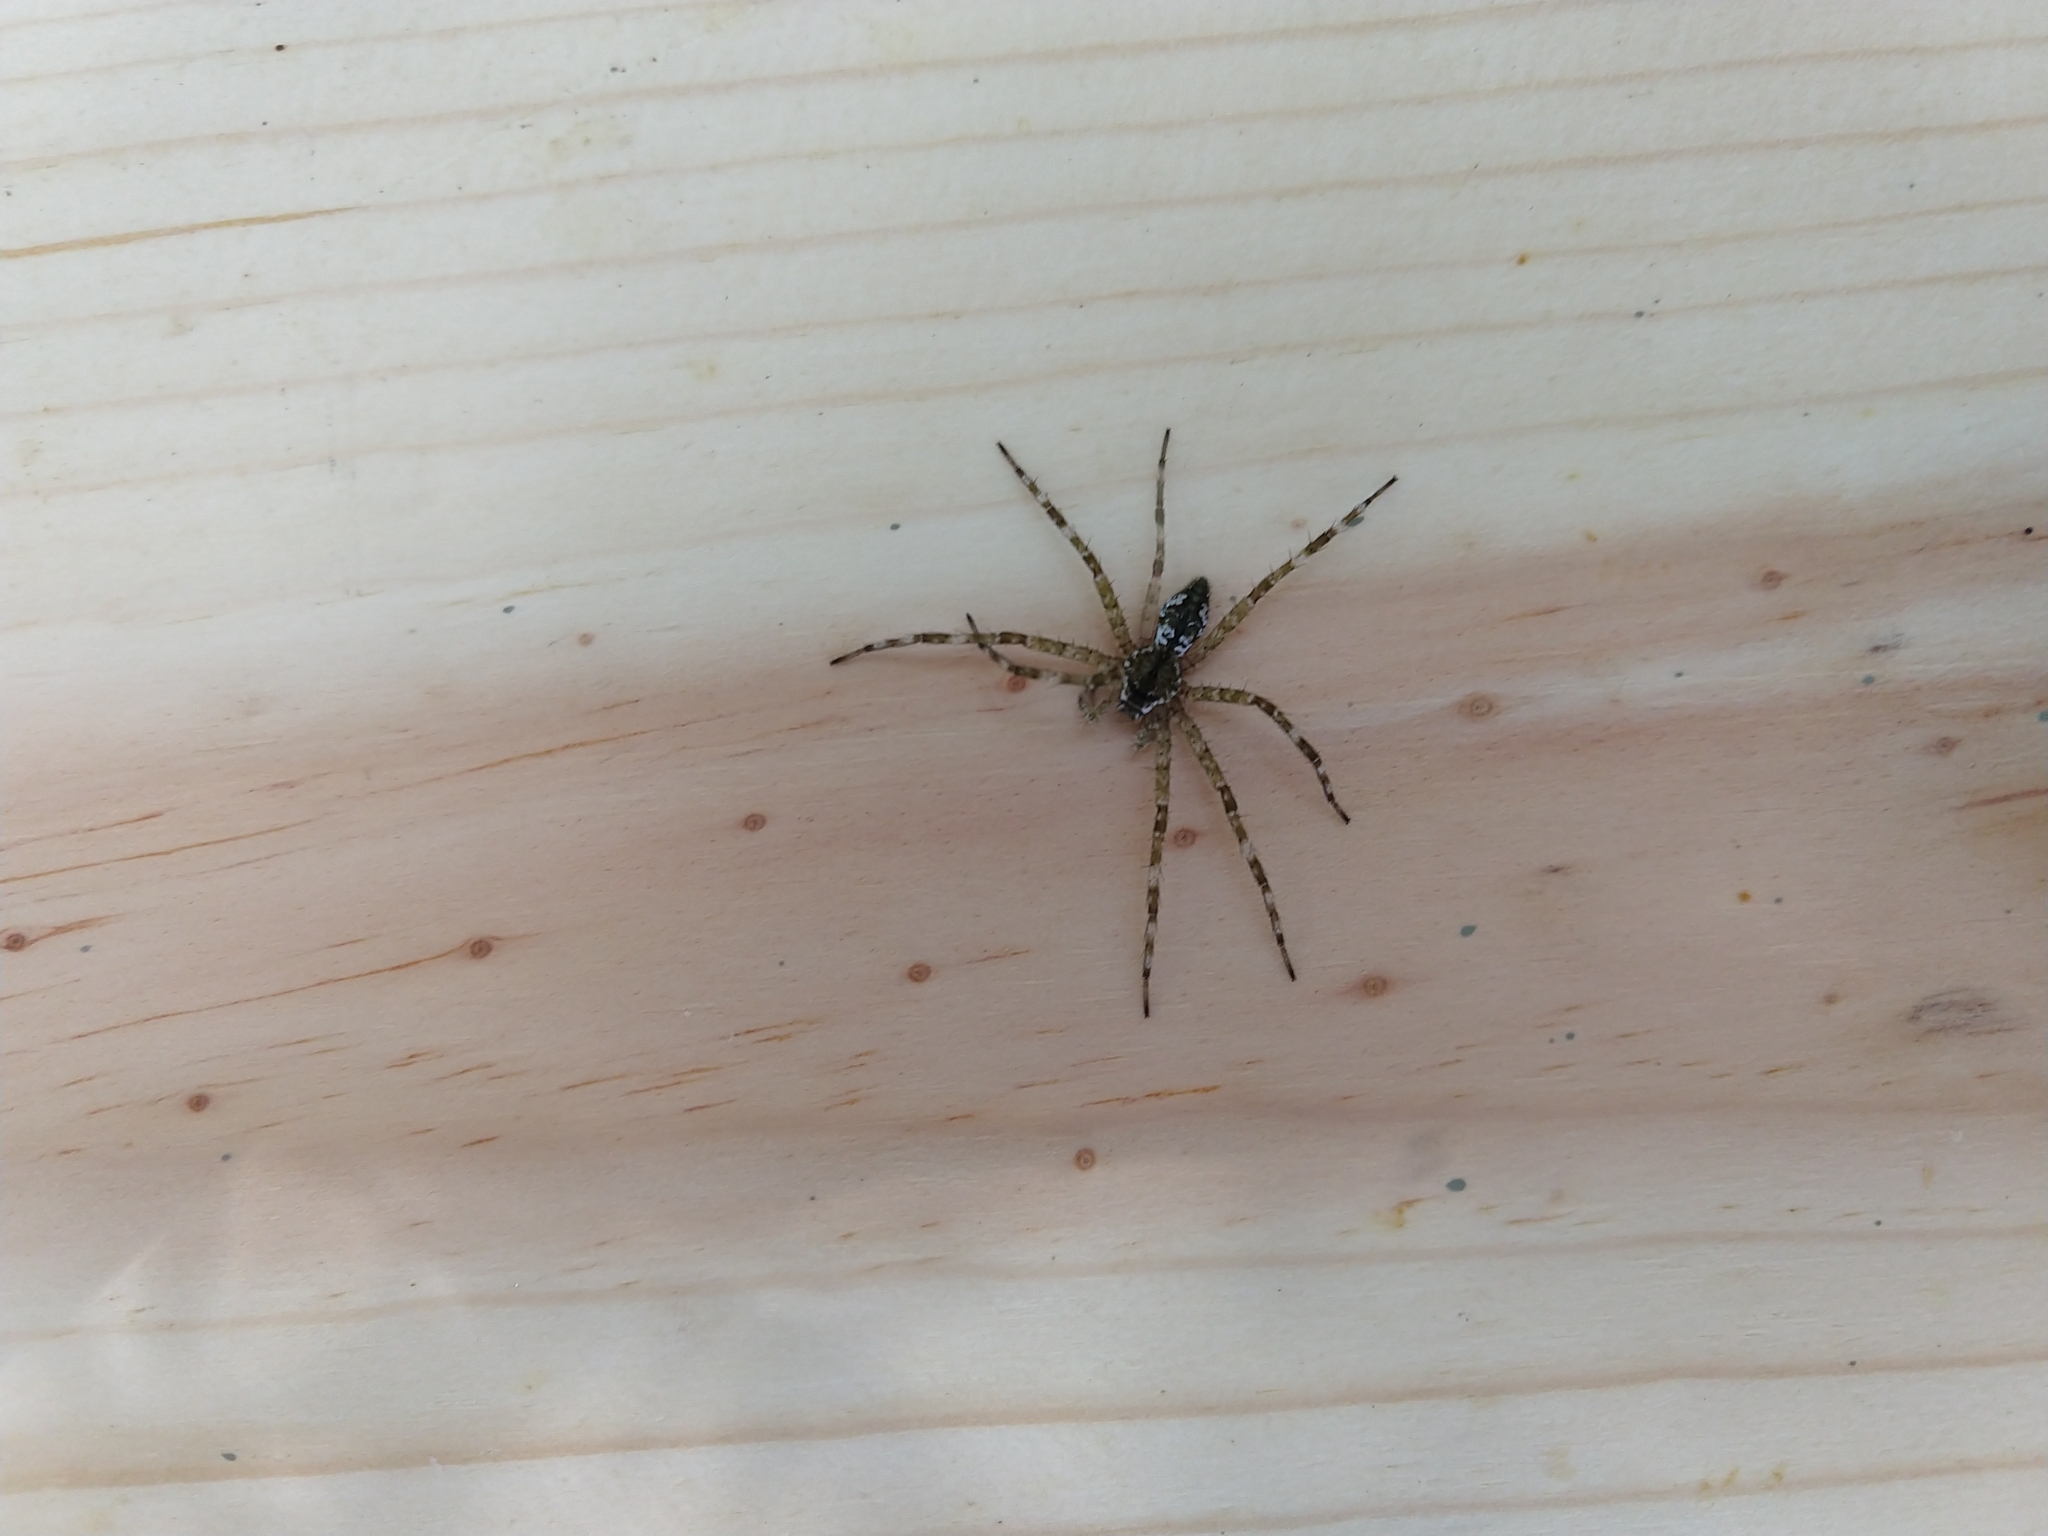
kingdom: Animalia
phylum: Arthropoda
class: Arachnida
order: Araneae
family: Pisauridae
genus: Dolomedes
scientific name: Dolomedes albineus
